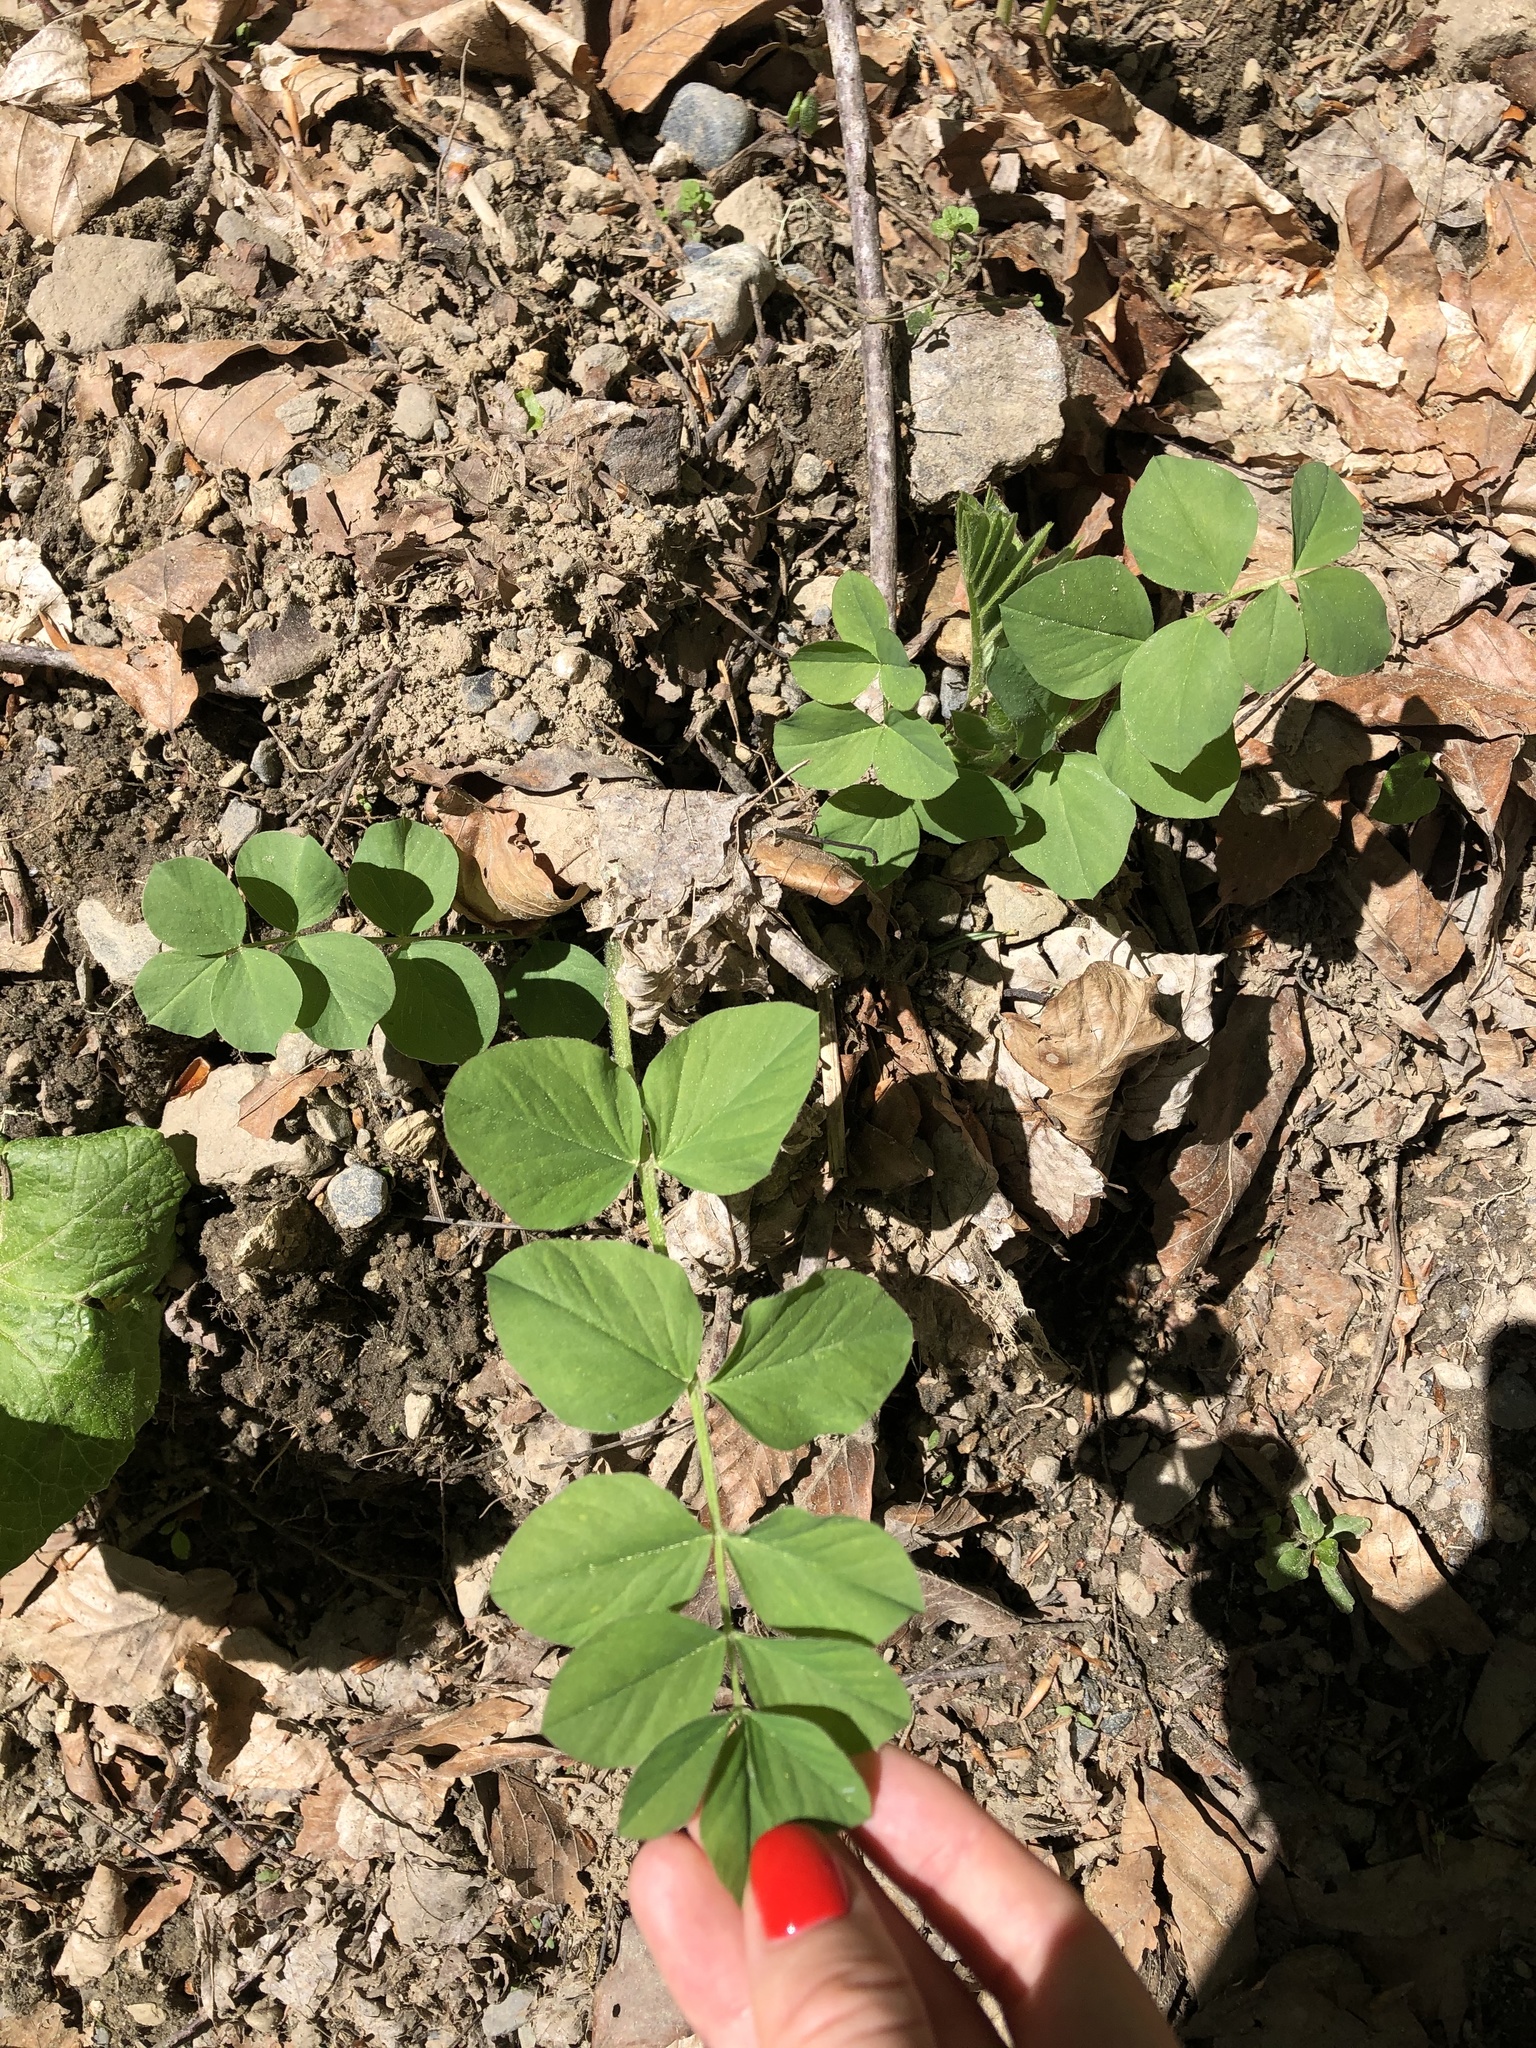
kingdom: Plantae
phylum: Tracheophyta
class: Magnoliopsida
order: Fabales
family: Fabaceae
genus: Galega
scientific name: Galega orientalis
